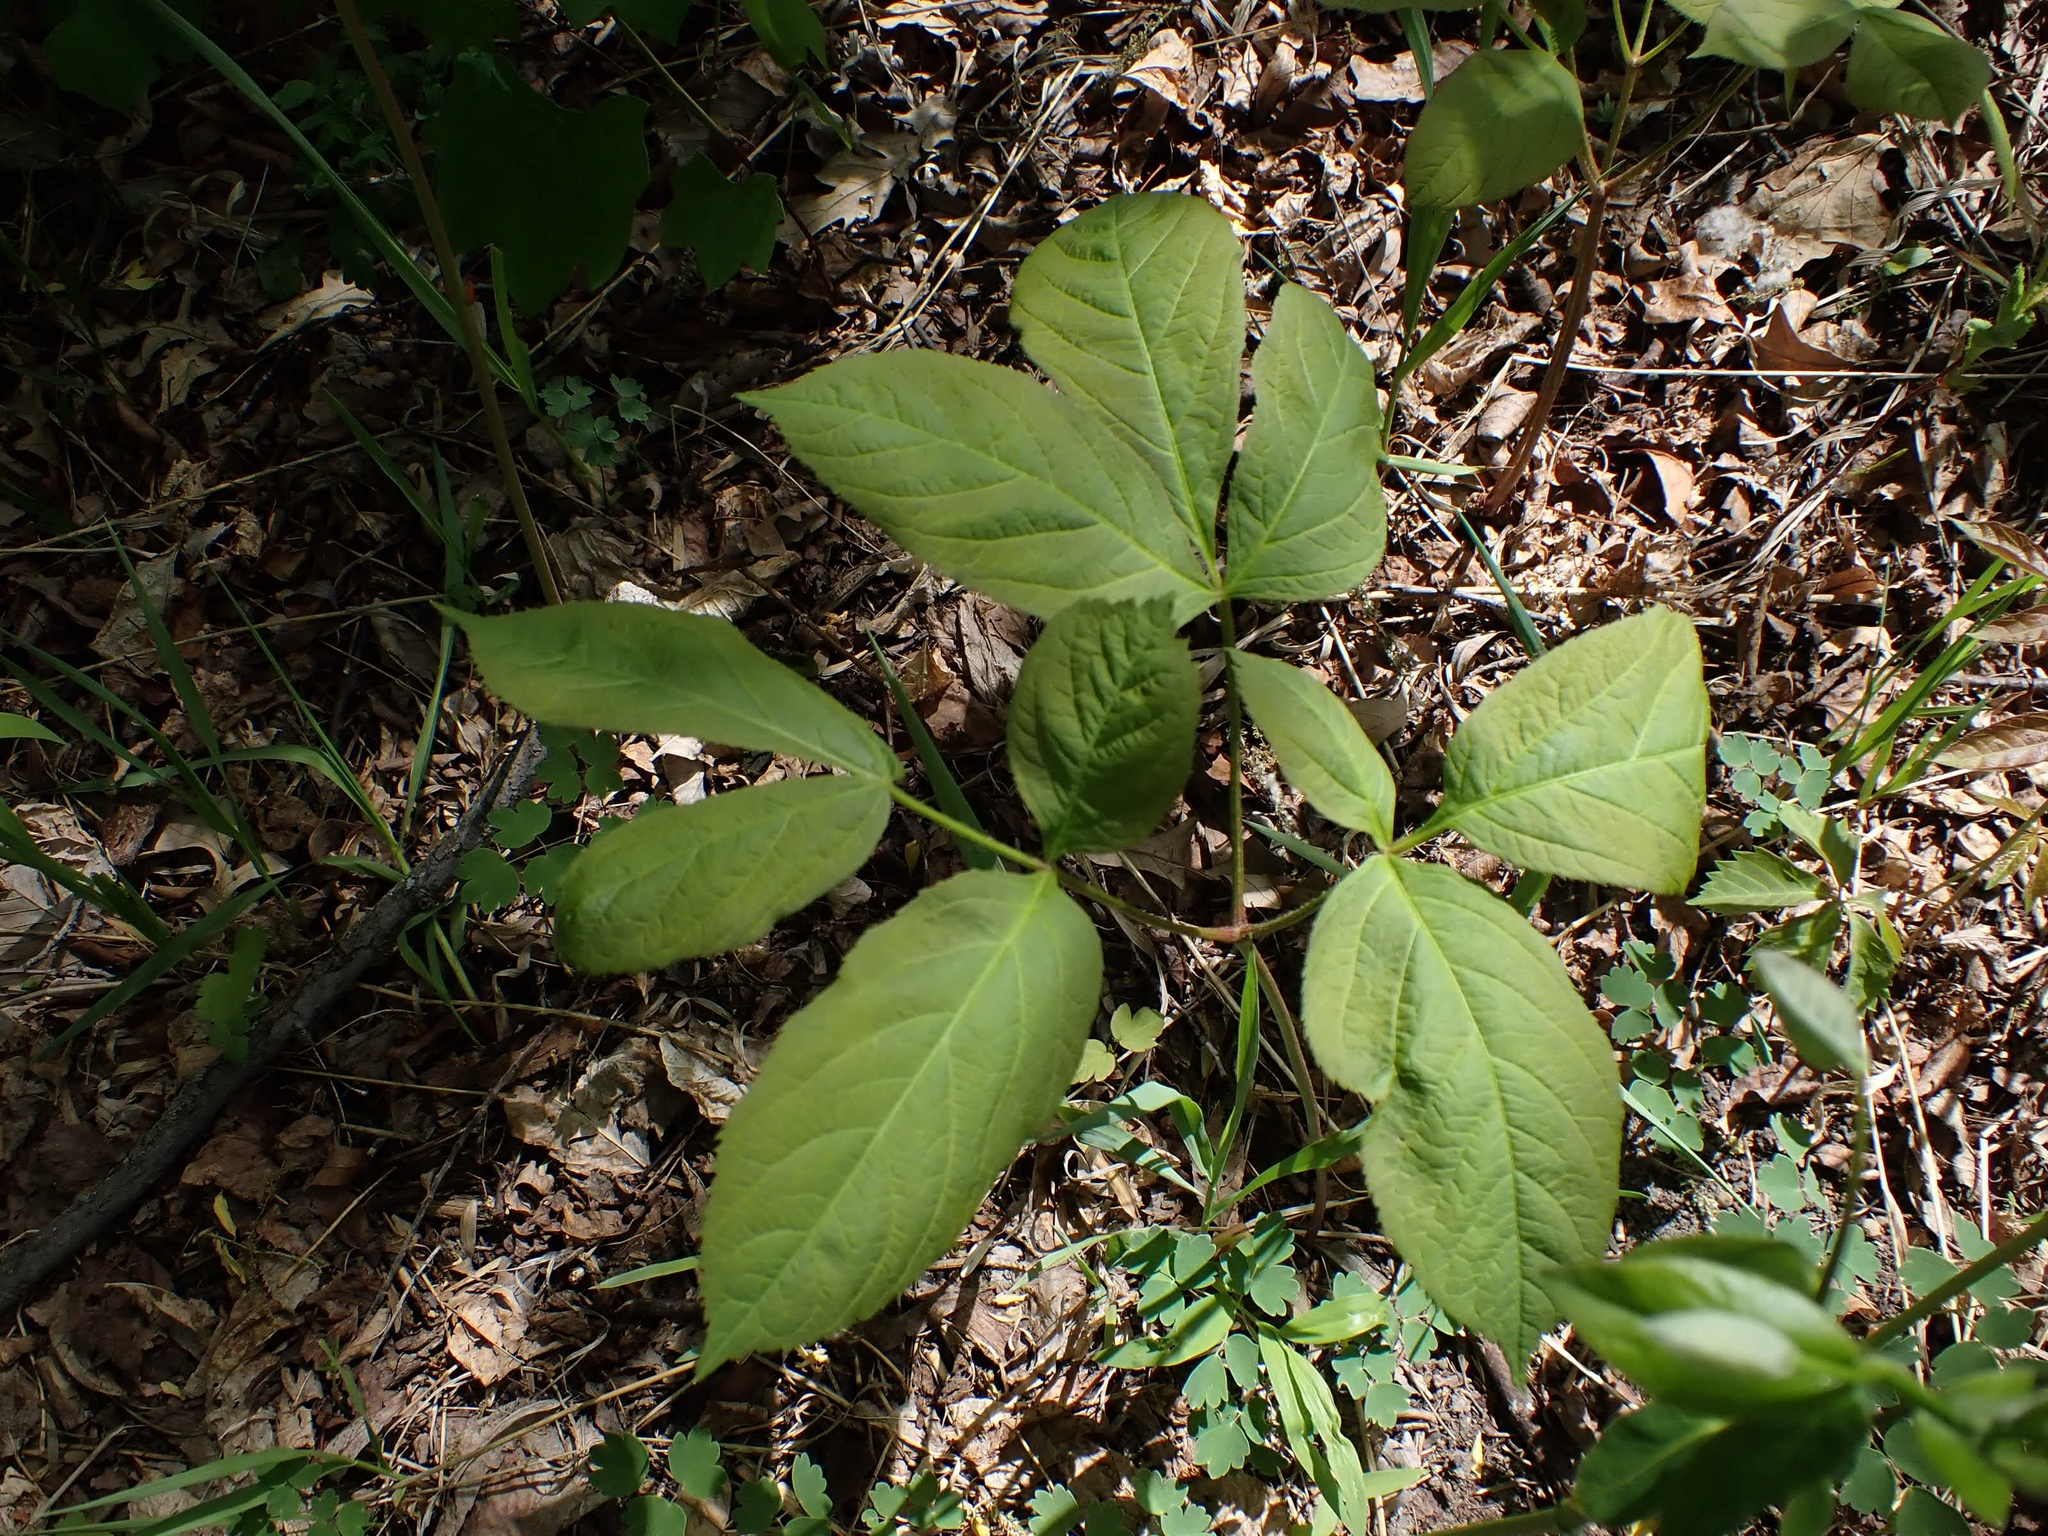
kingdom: Plantae
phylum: Tracheophyta
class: Magnoliopsida
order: Apiales
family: Araliaceae
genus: Aralia
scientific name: Aralia nudicaulis
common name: Wild sarsaparilla
